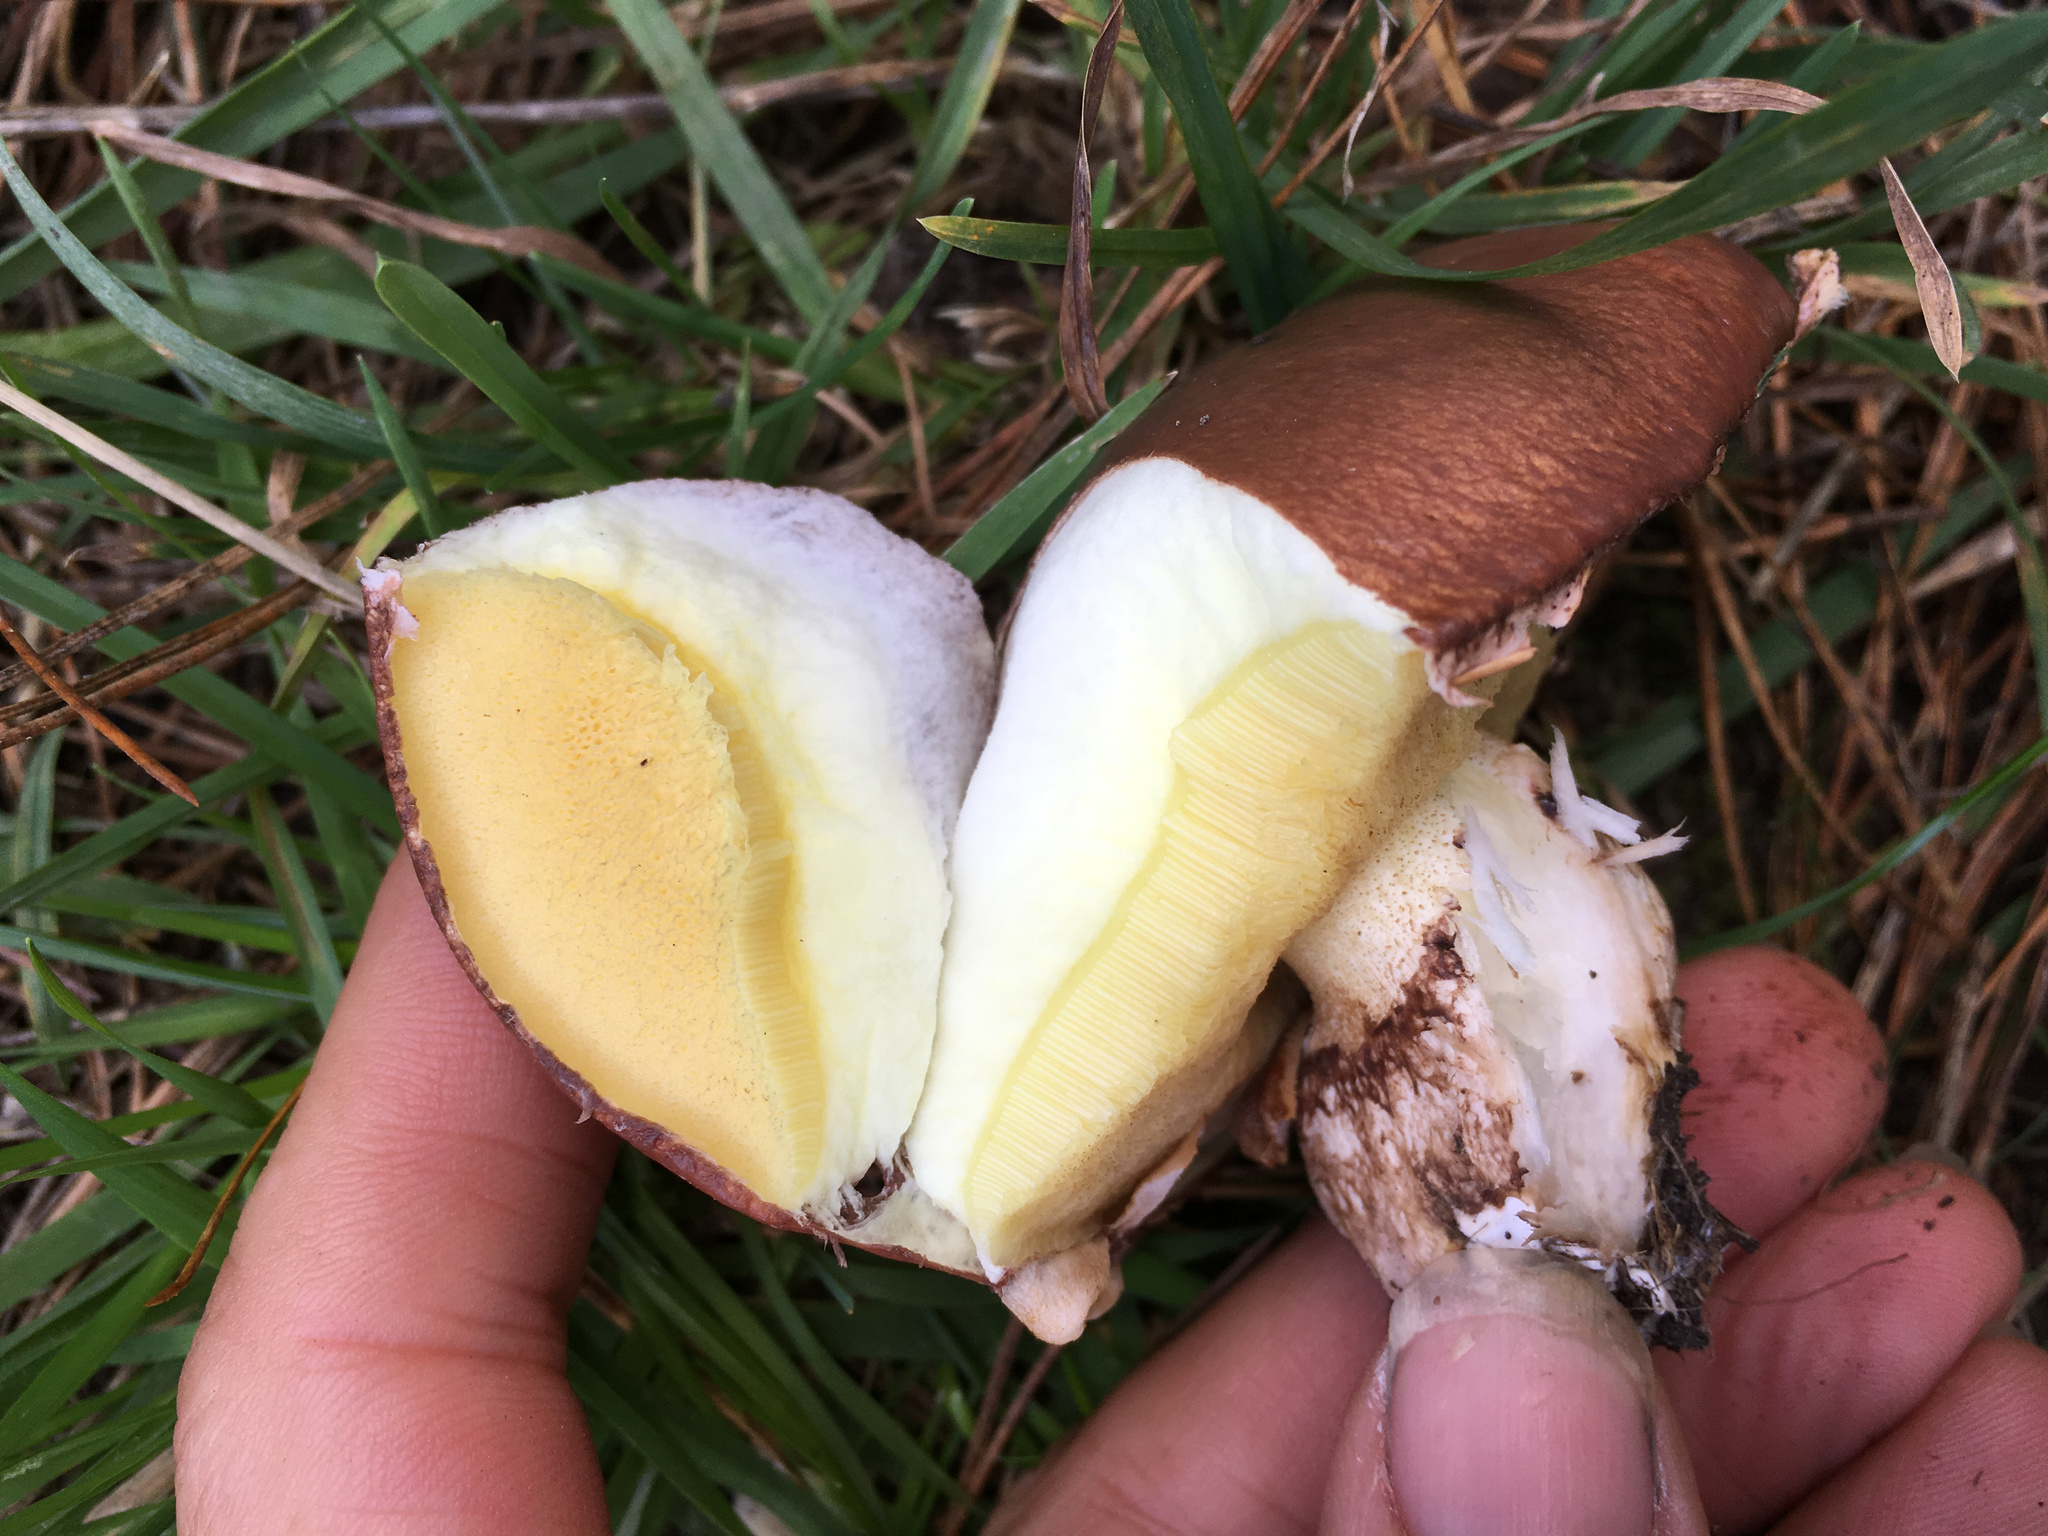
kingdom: Fungi
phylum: Basidiomycota
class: Agaricomycetes
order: Boletales
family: Suillaceae
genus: Suillus
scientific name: Suillus luteus
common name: Slippery jack
